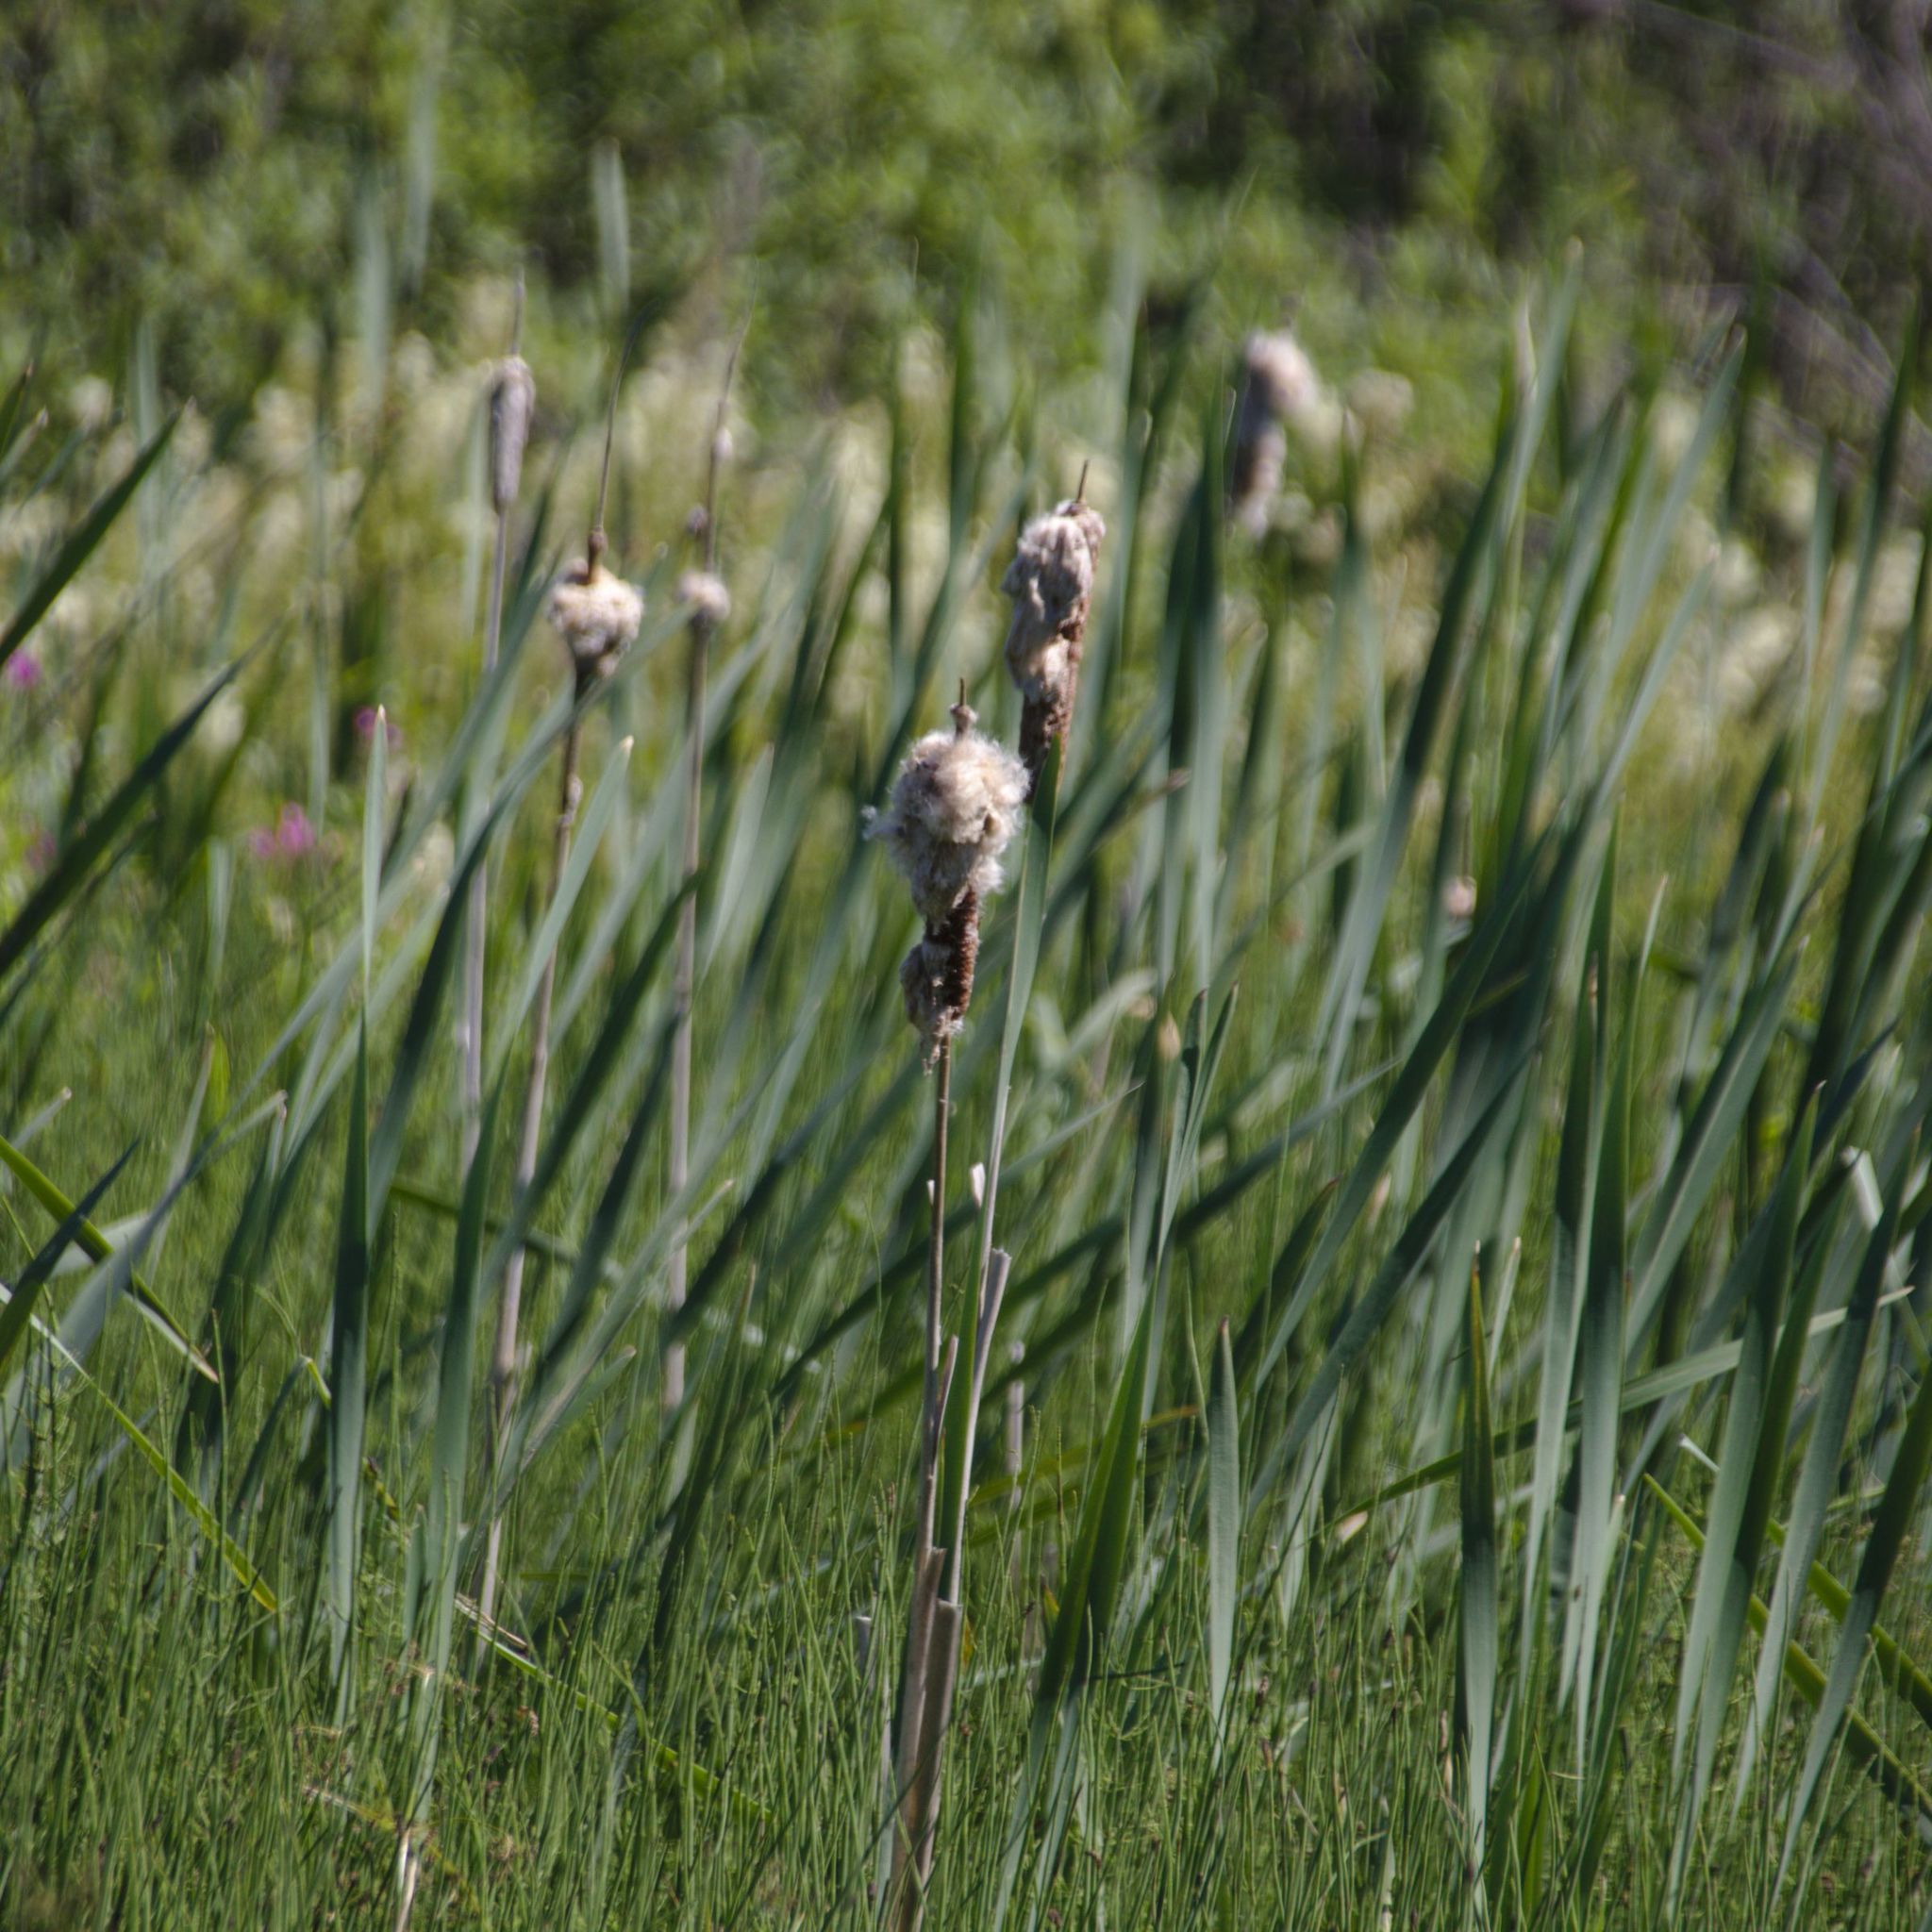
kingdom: Plantae
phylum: Tracheophyta
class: Liliopsida
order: Poales
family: Typhaceae
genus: Typha
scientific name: Typha latifolia
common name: Broadleaf cattail
